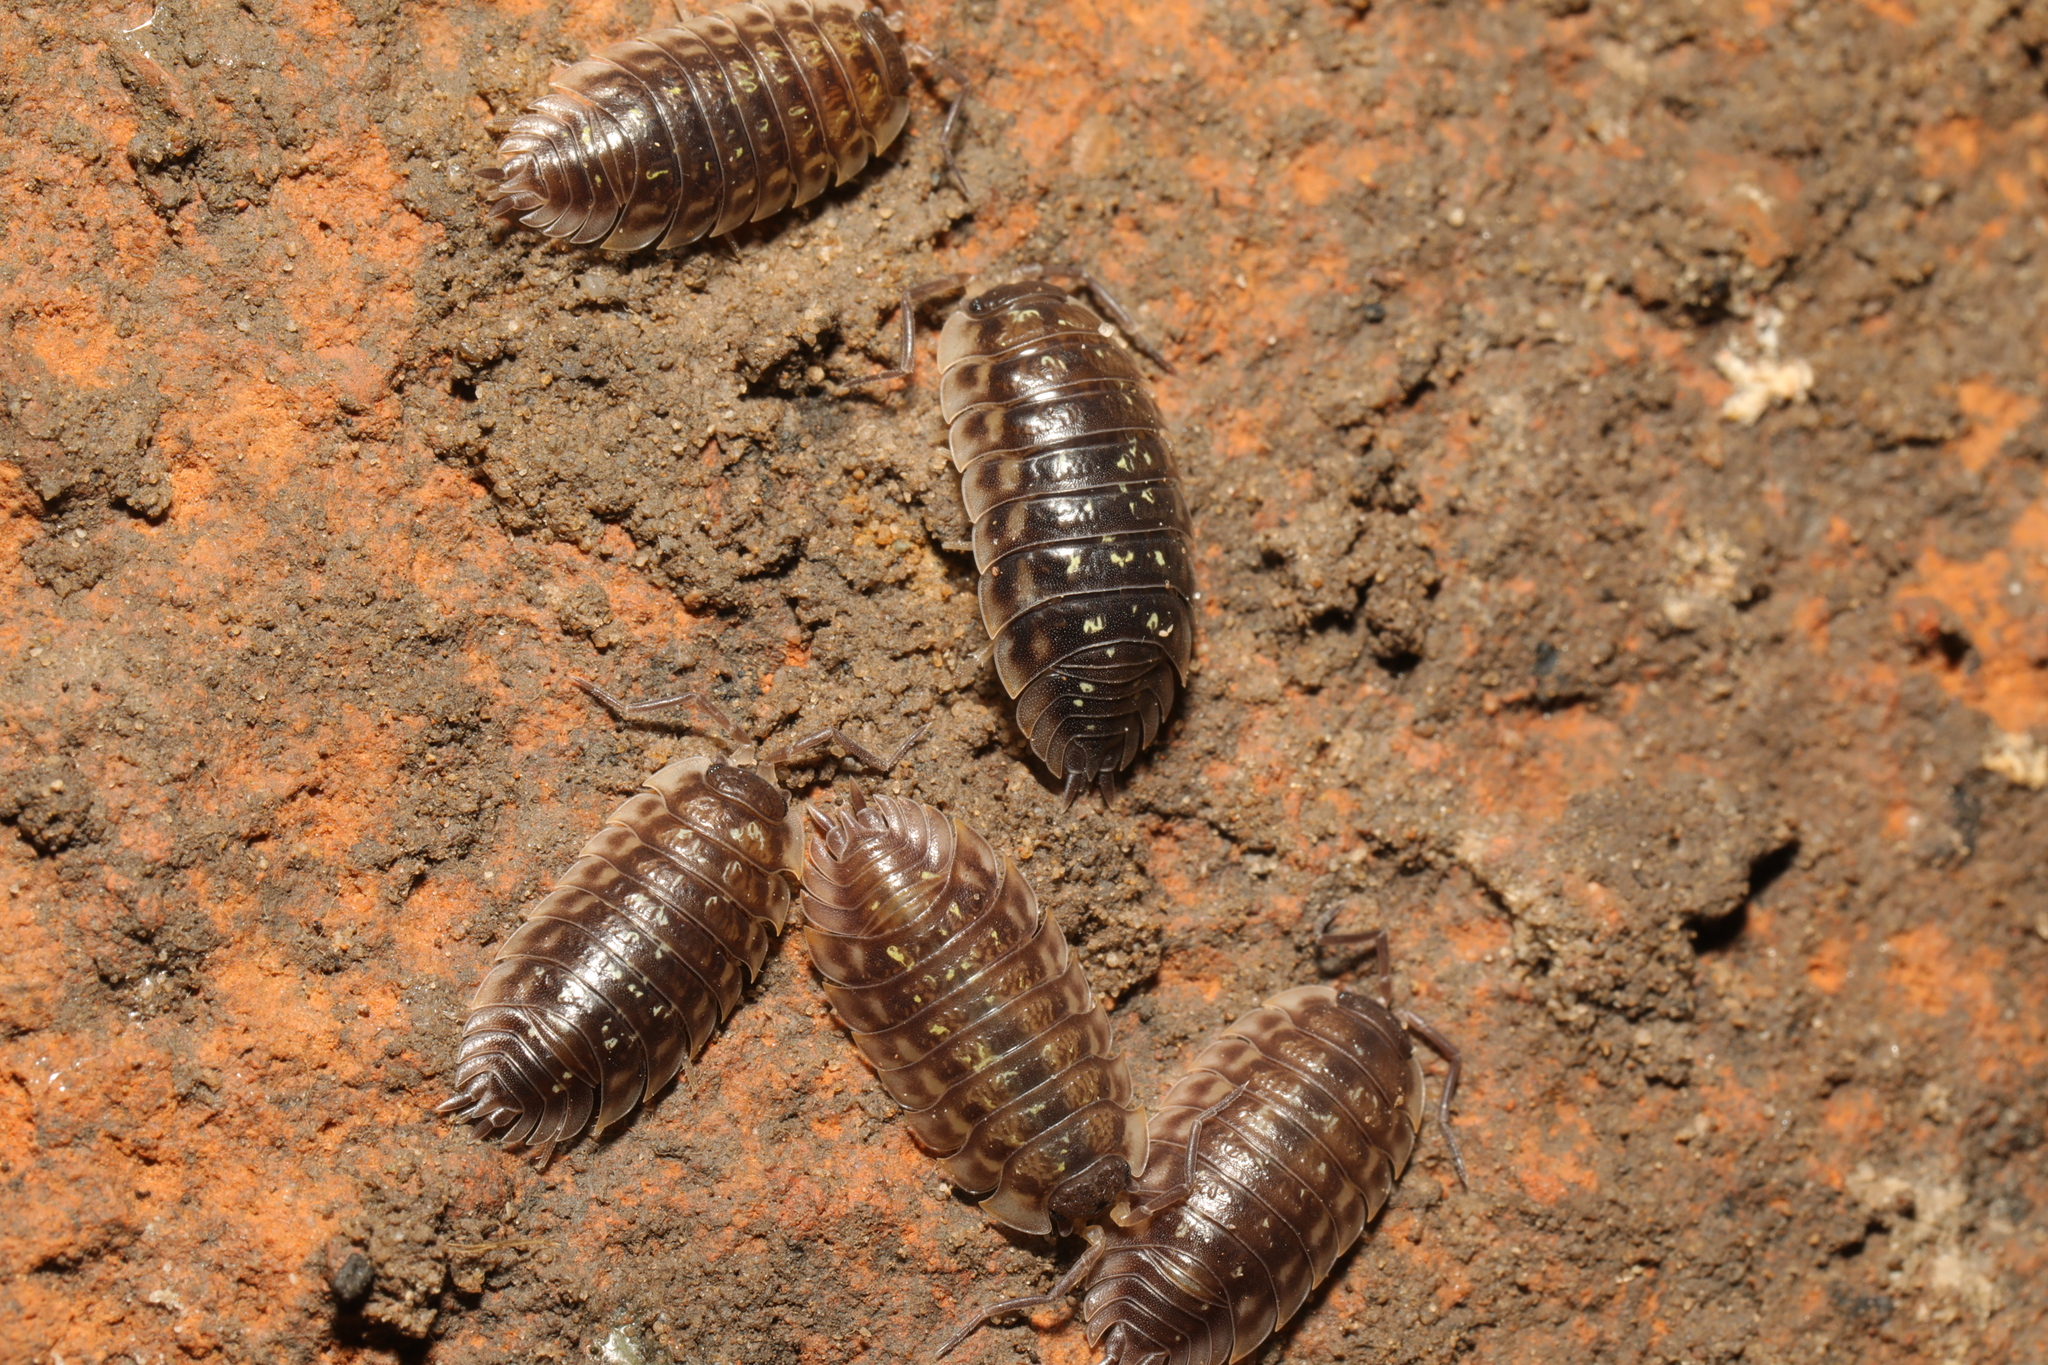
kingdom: Animalia
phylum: Arthropoda
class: Malacostraca
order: Isopoda
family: Oniscidae
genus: Oniscus
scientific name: Oniscus asellus
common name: Common shiny woodlouse
